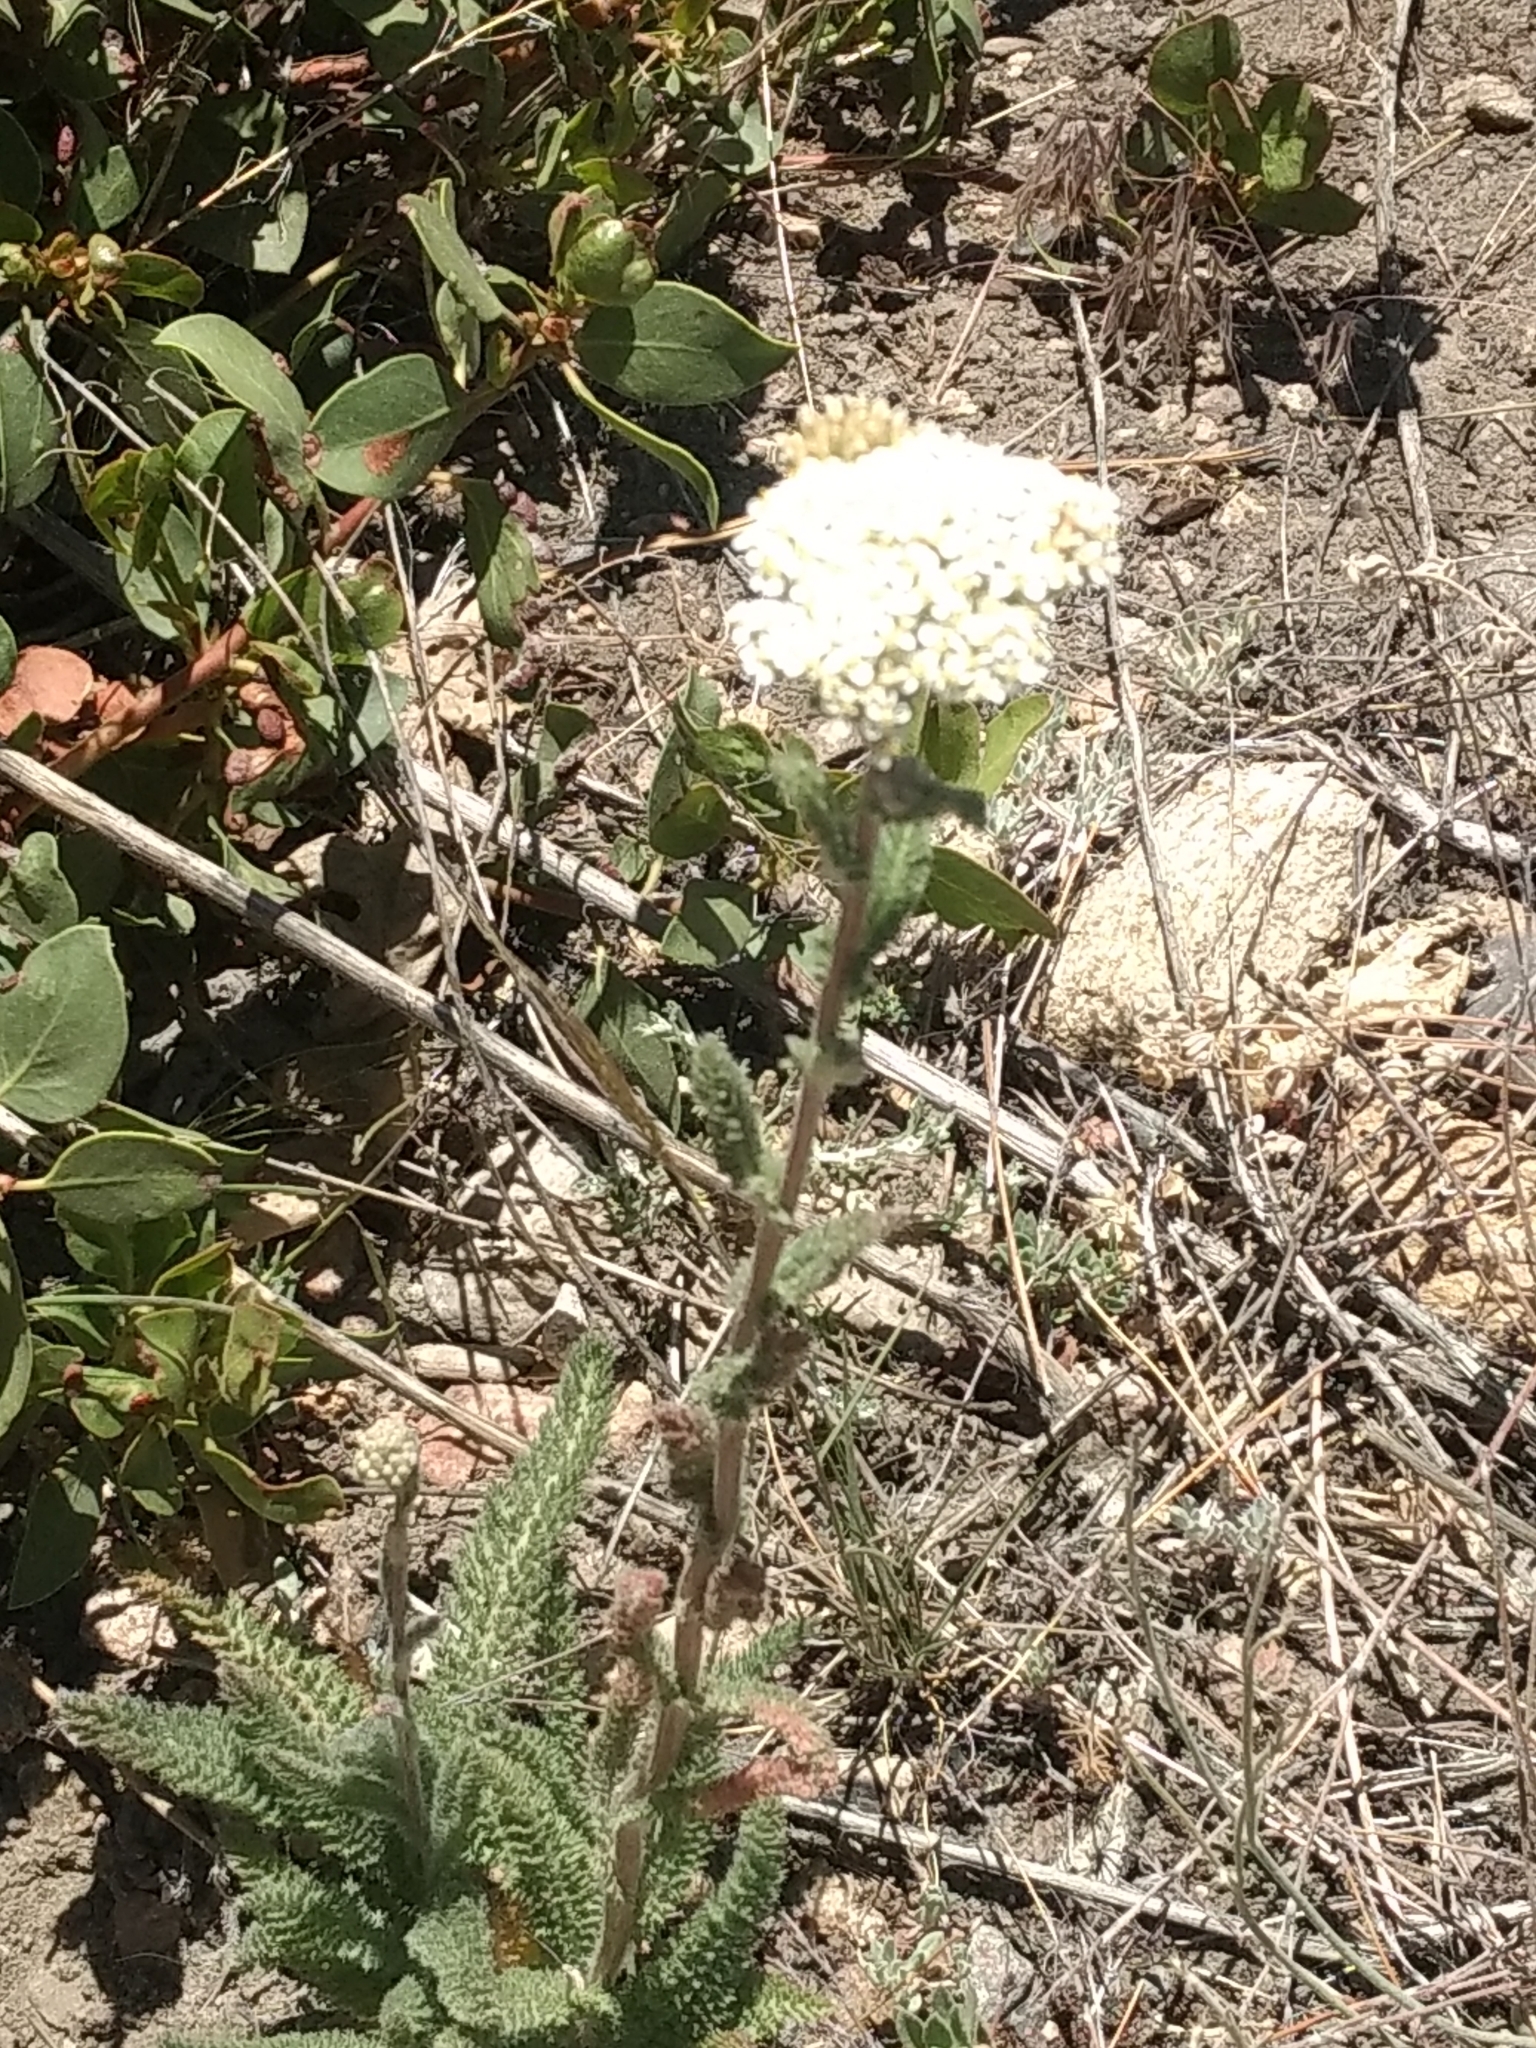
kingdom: Plantae
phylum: Tracheophyta
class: Magnoliopsida
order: Asterales
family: Asteraceae
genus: Achillea
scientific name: Achillea millefolium
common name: Yarrow
